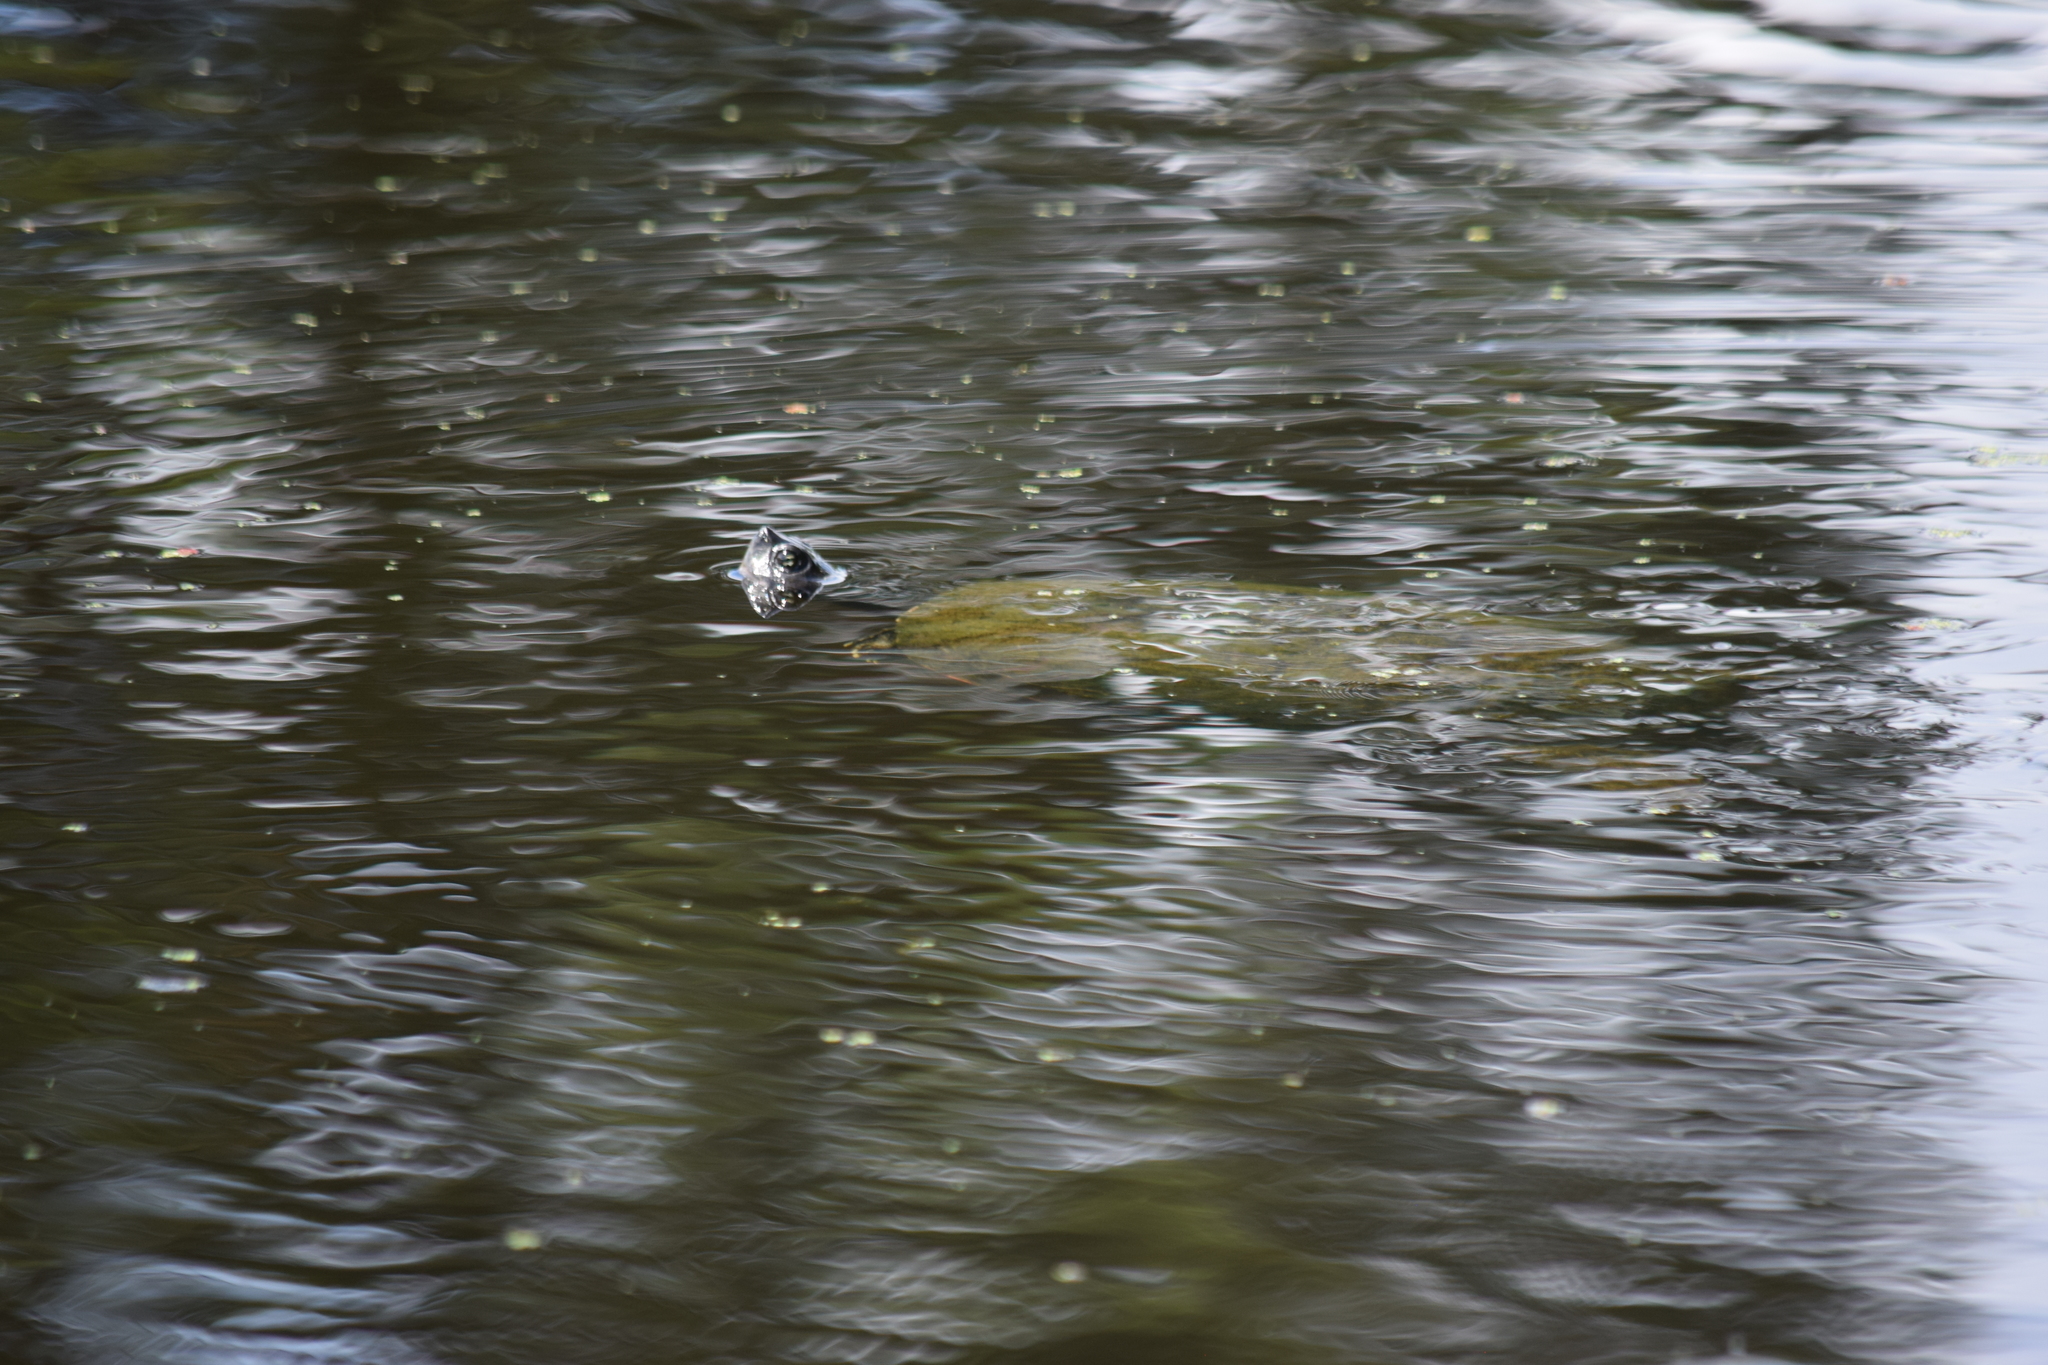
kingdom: Animalia
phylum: Chordata
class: Testudines
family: Emydidae
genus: Pseudemys
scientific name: Pseudemys rubriventris
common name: American red-bellied turtle
